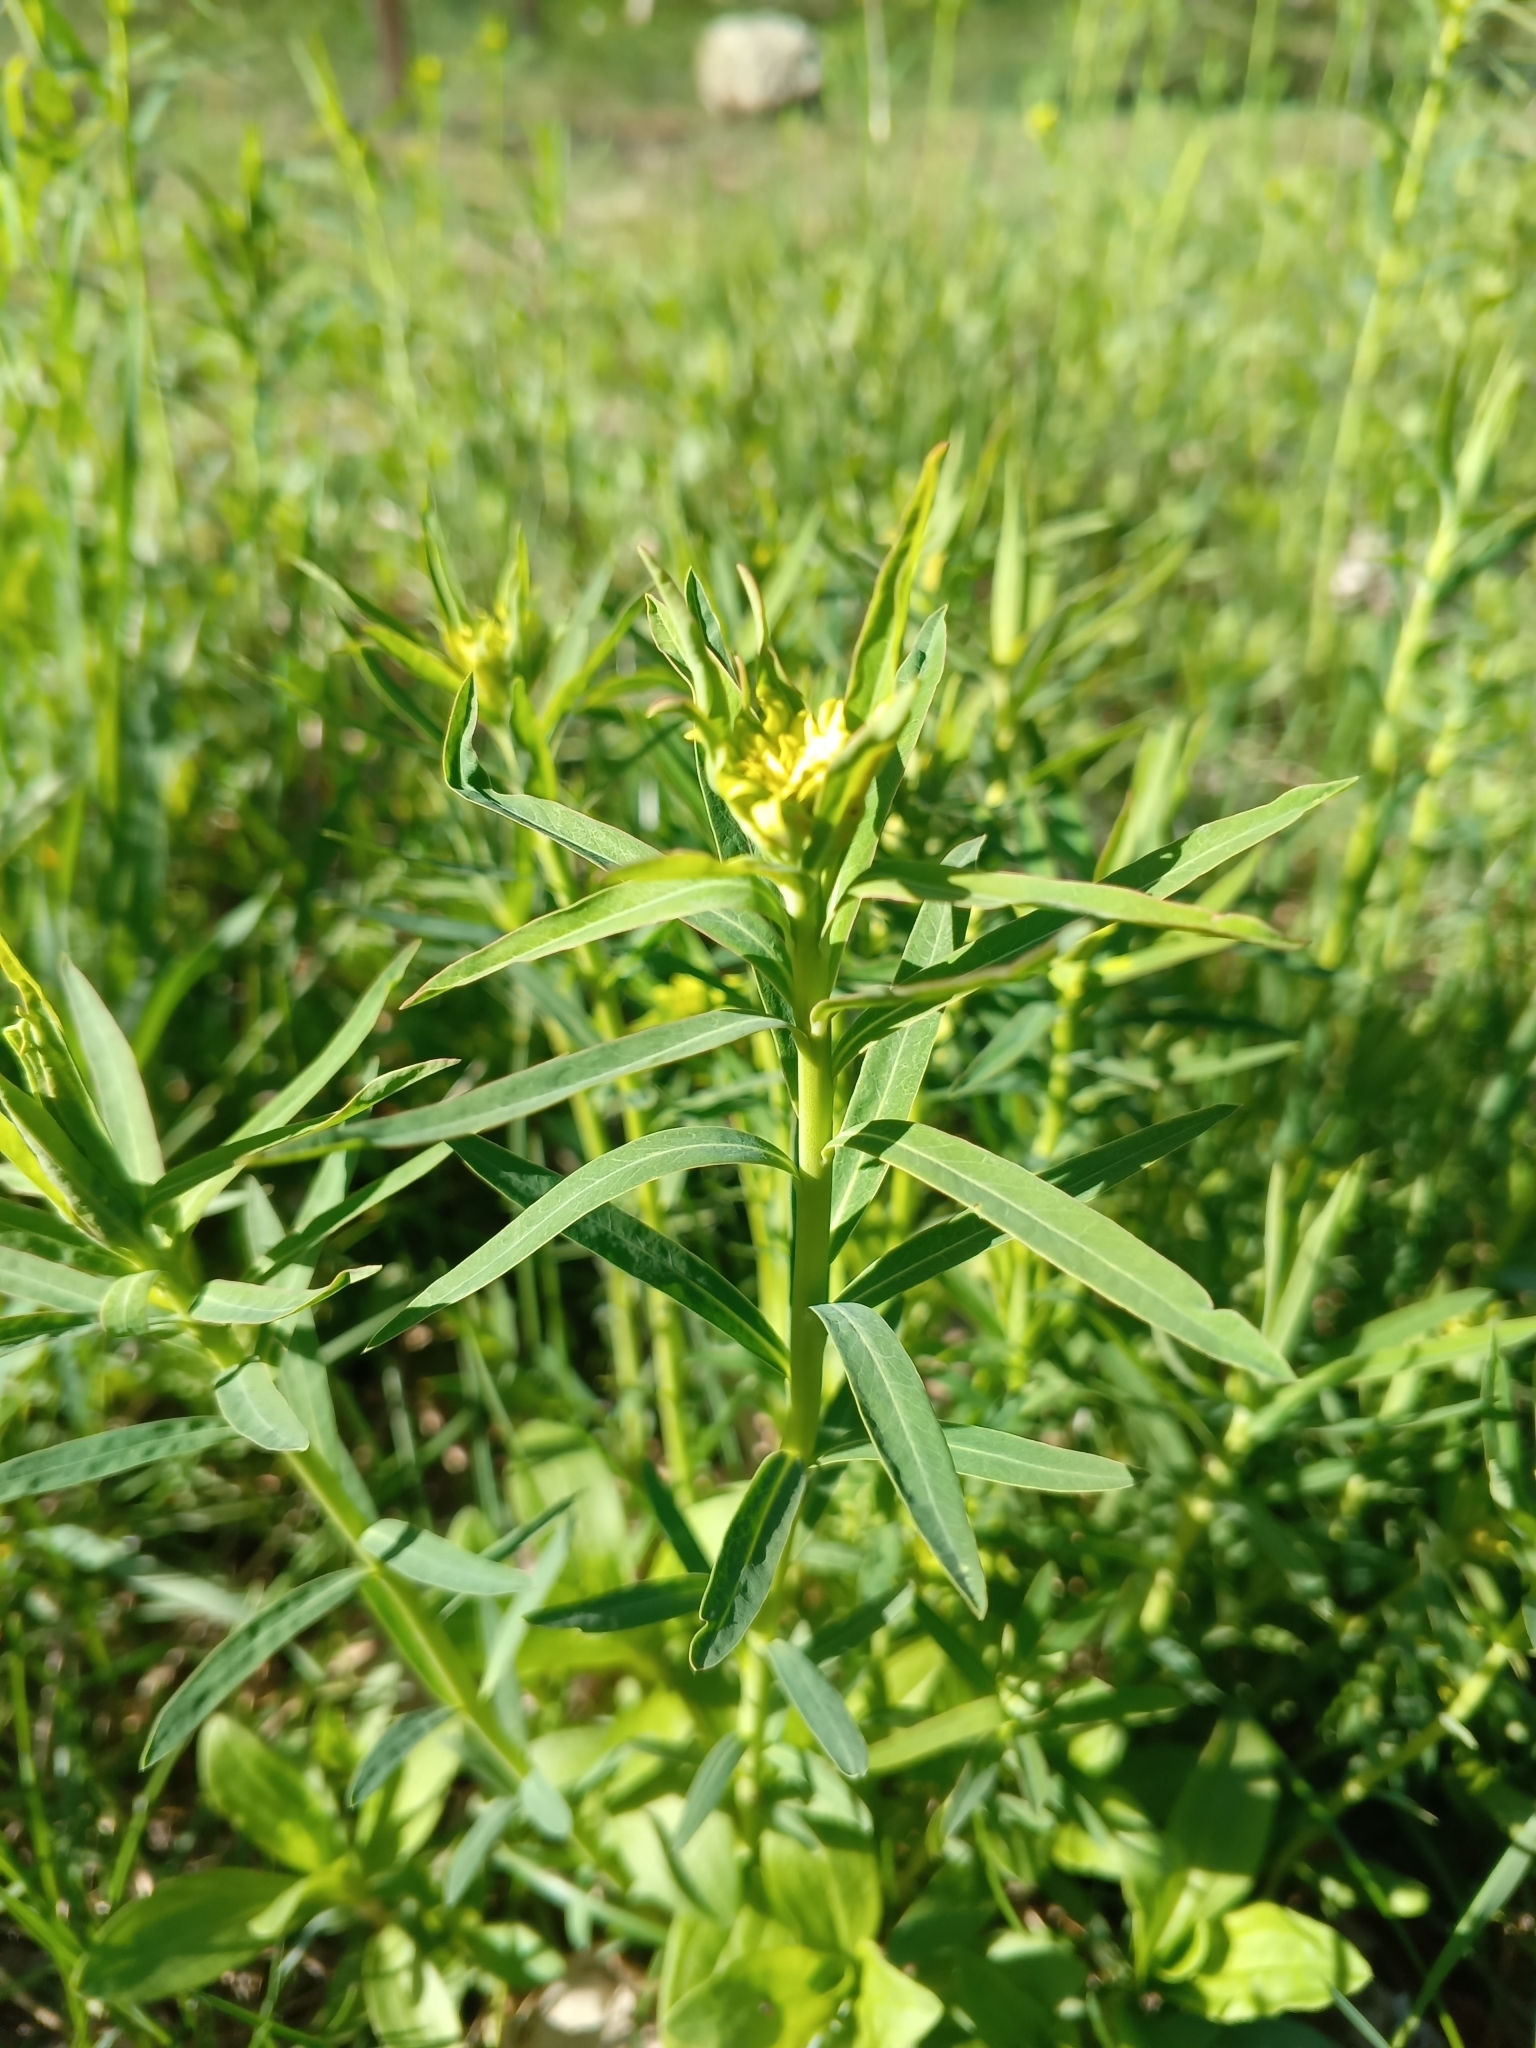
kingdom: Plantae
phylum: Tracheophyta
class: Magnoliopsida
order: Malpighiales
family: Euphorbiaceae
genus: Euphorbia
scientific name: Euphorbia virgata
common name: Leafy spurge
